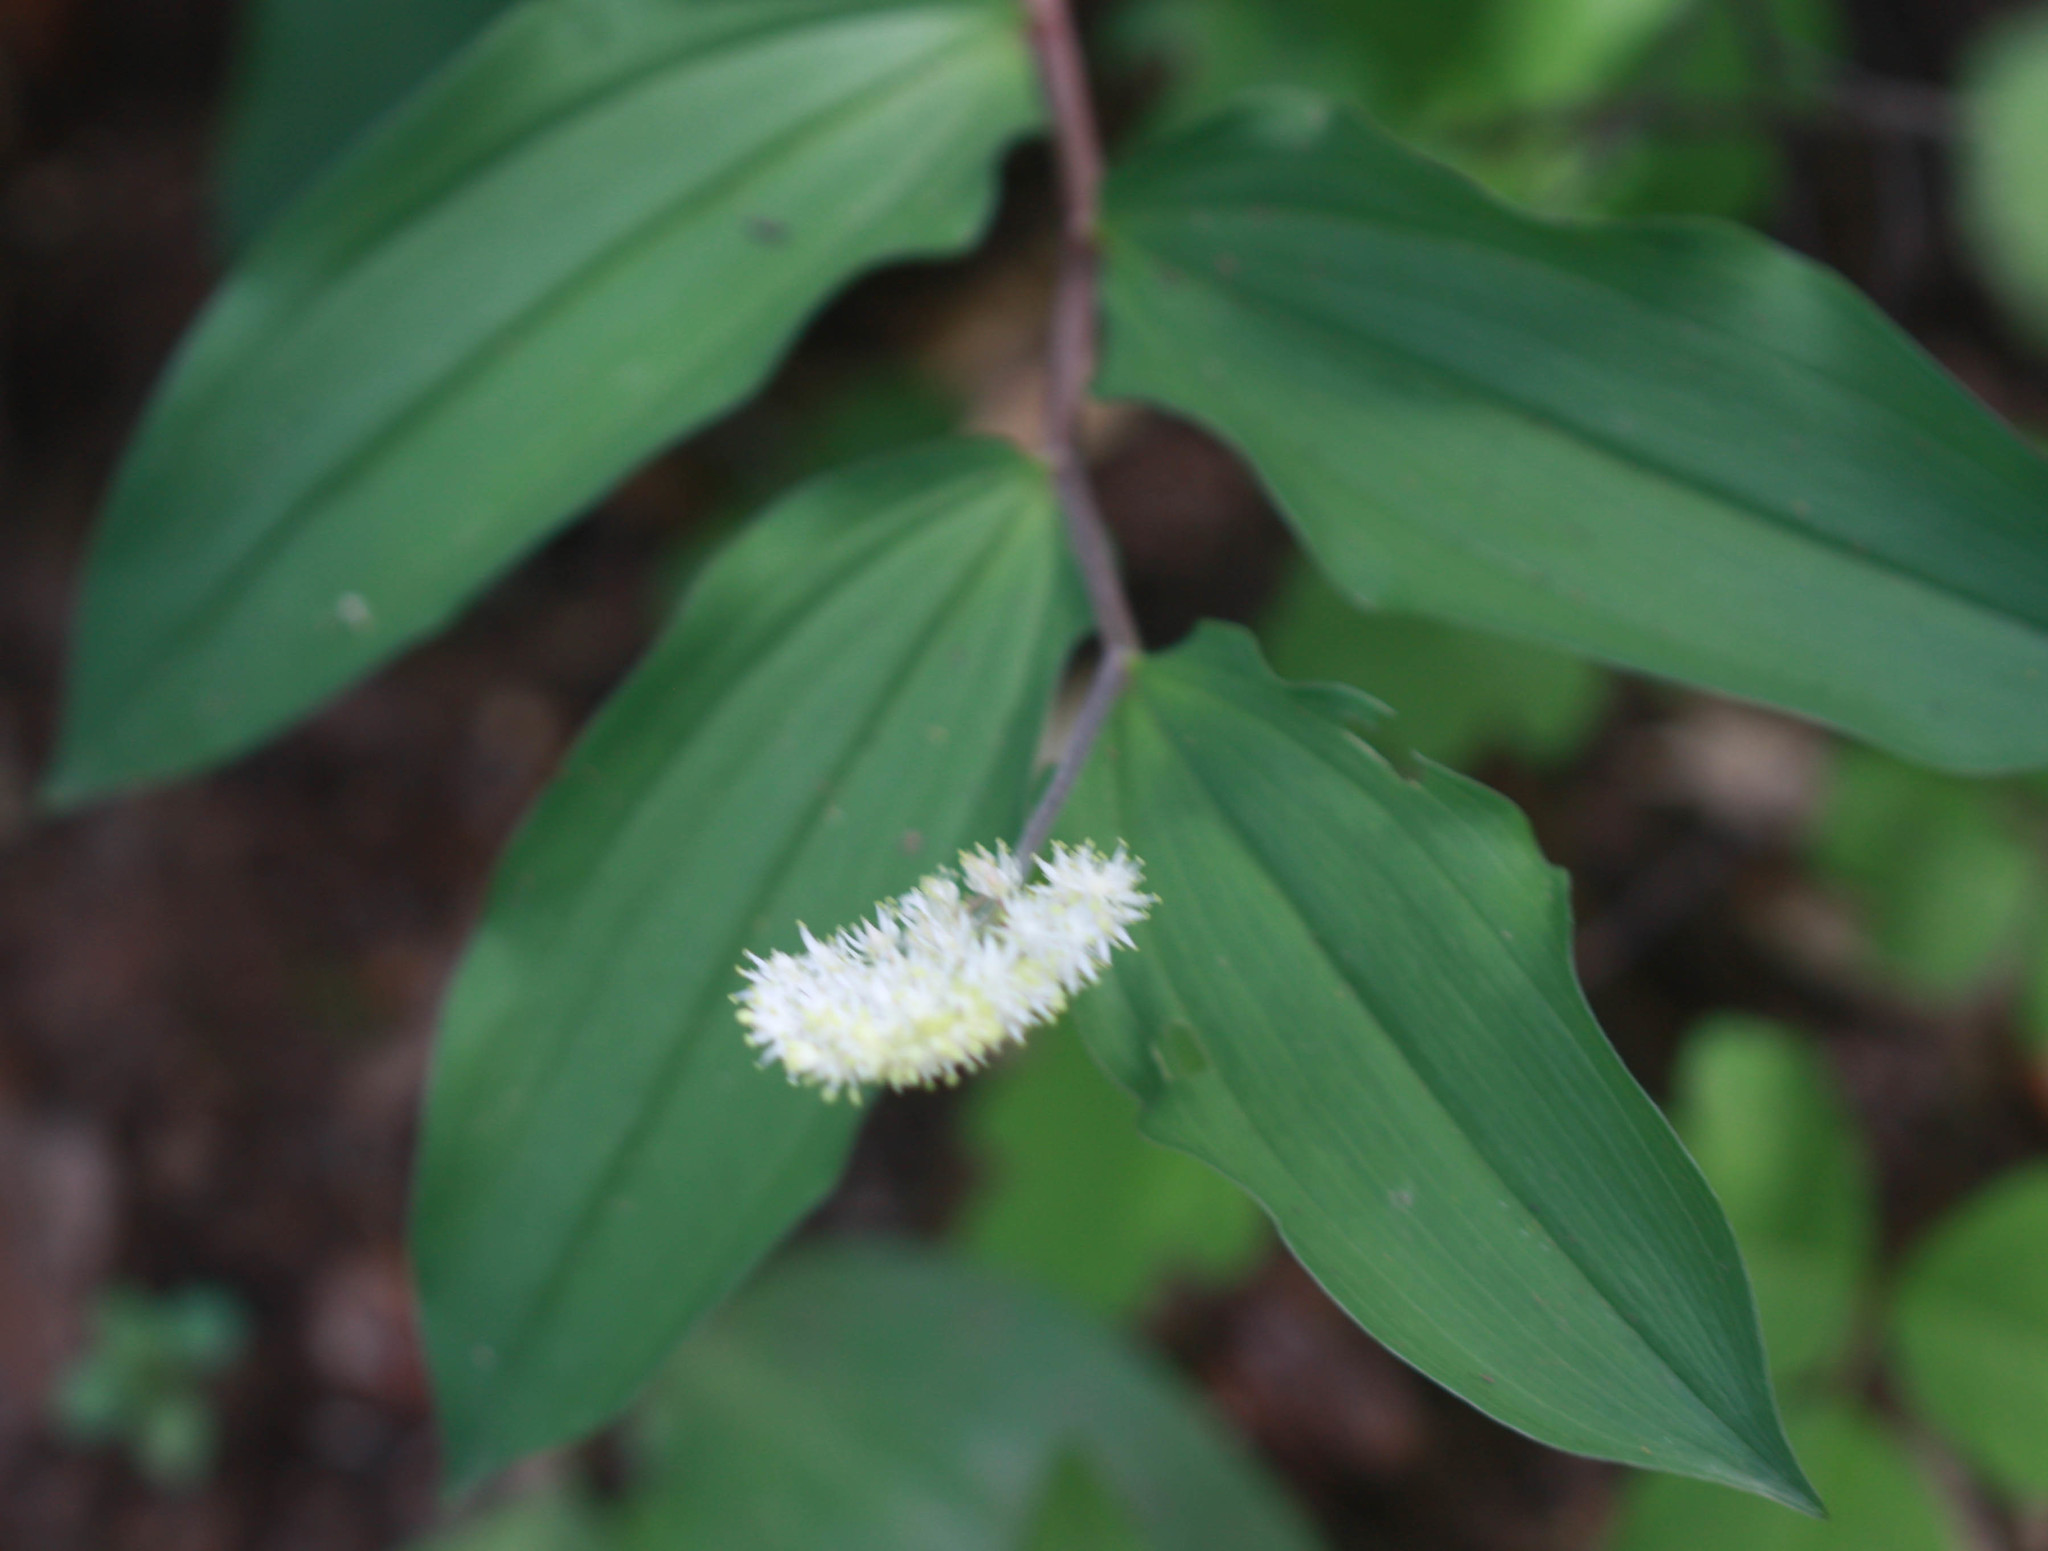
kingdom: Plantae
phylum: Tracheophyta
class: Liliopsida
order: Asparagales
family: Asparagaceae
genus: Maianthemum
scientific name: Maianthemum racemosum
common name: False spikenard
